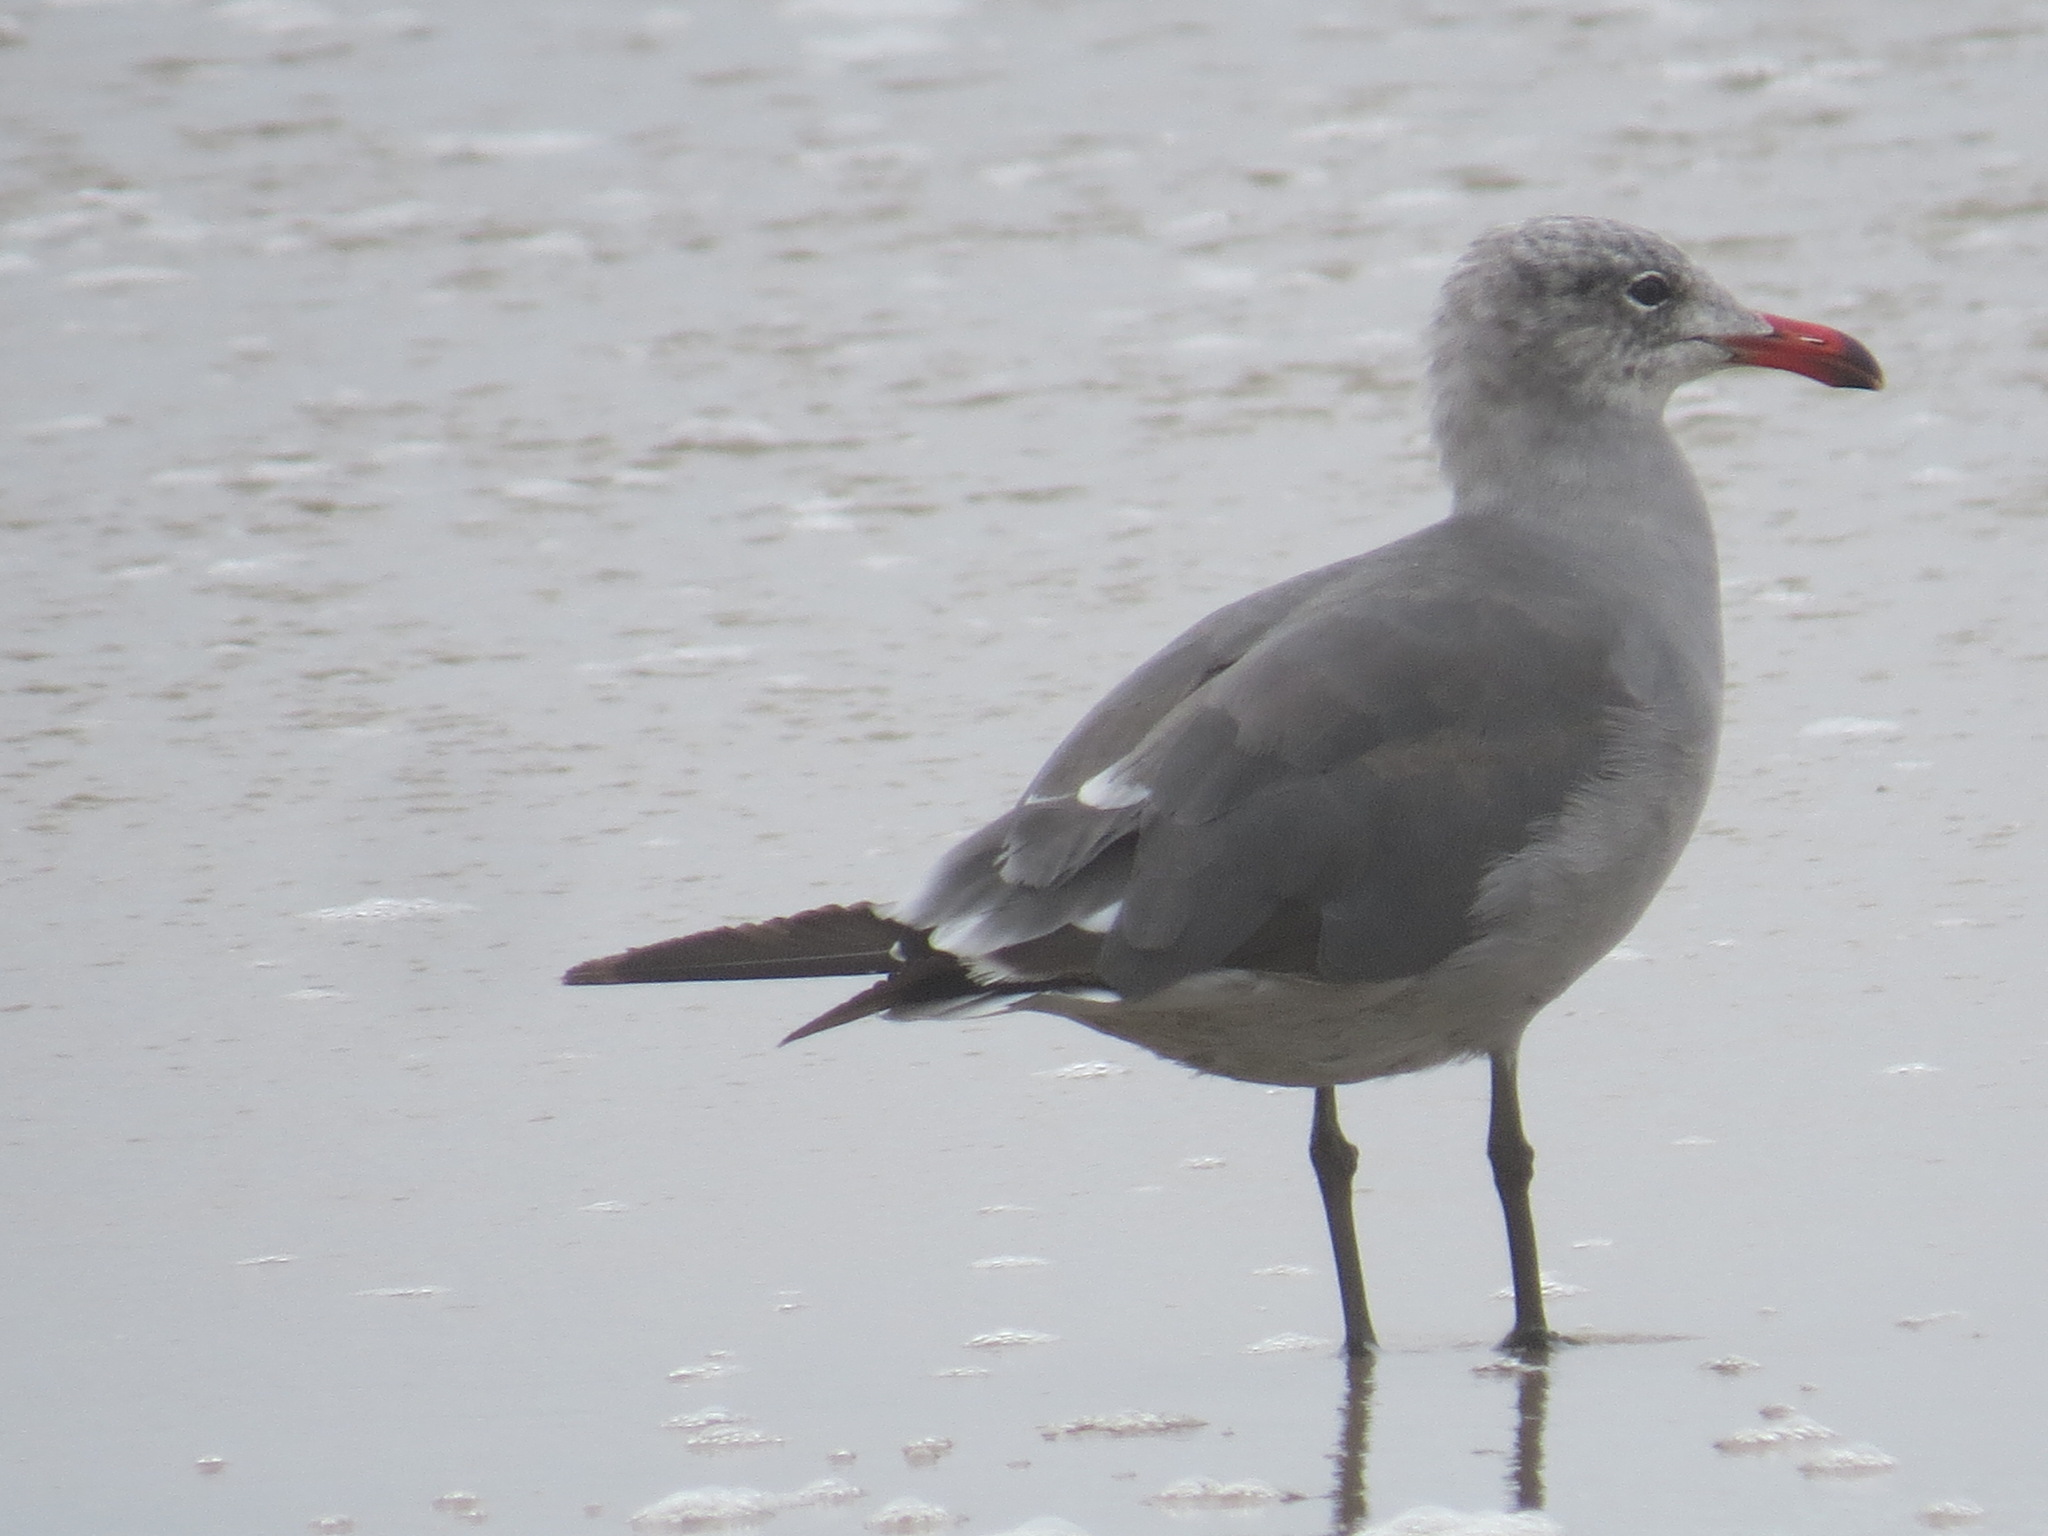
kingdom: Animalia
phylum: Chordata
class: Aves
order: Charadriiformes
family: Laridae
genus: Larus
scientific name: Larus heermanni
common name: Heermann's gull
